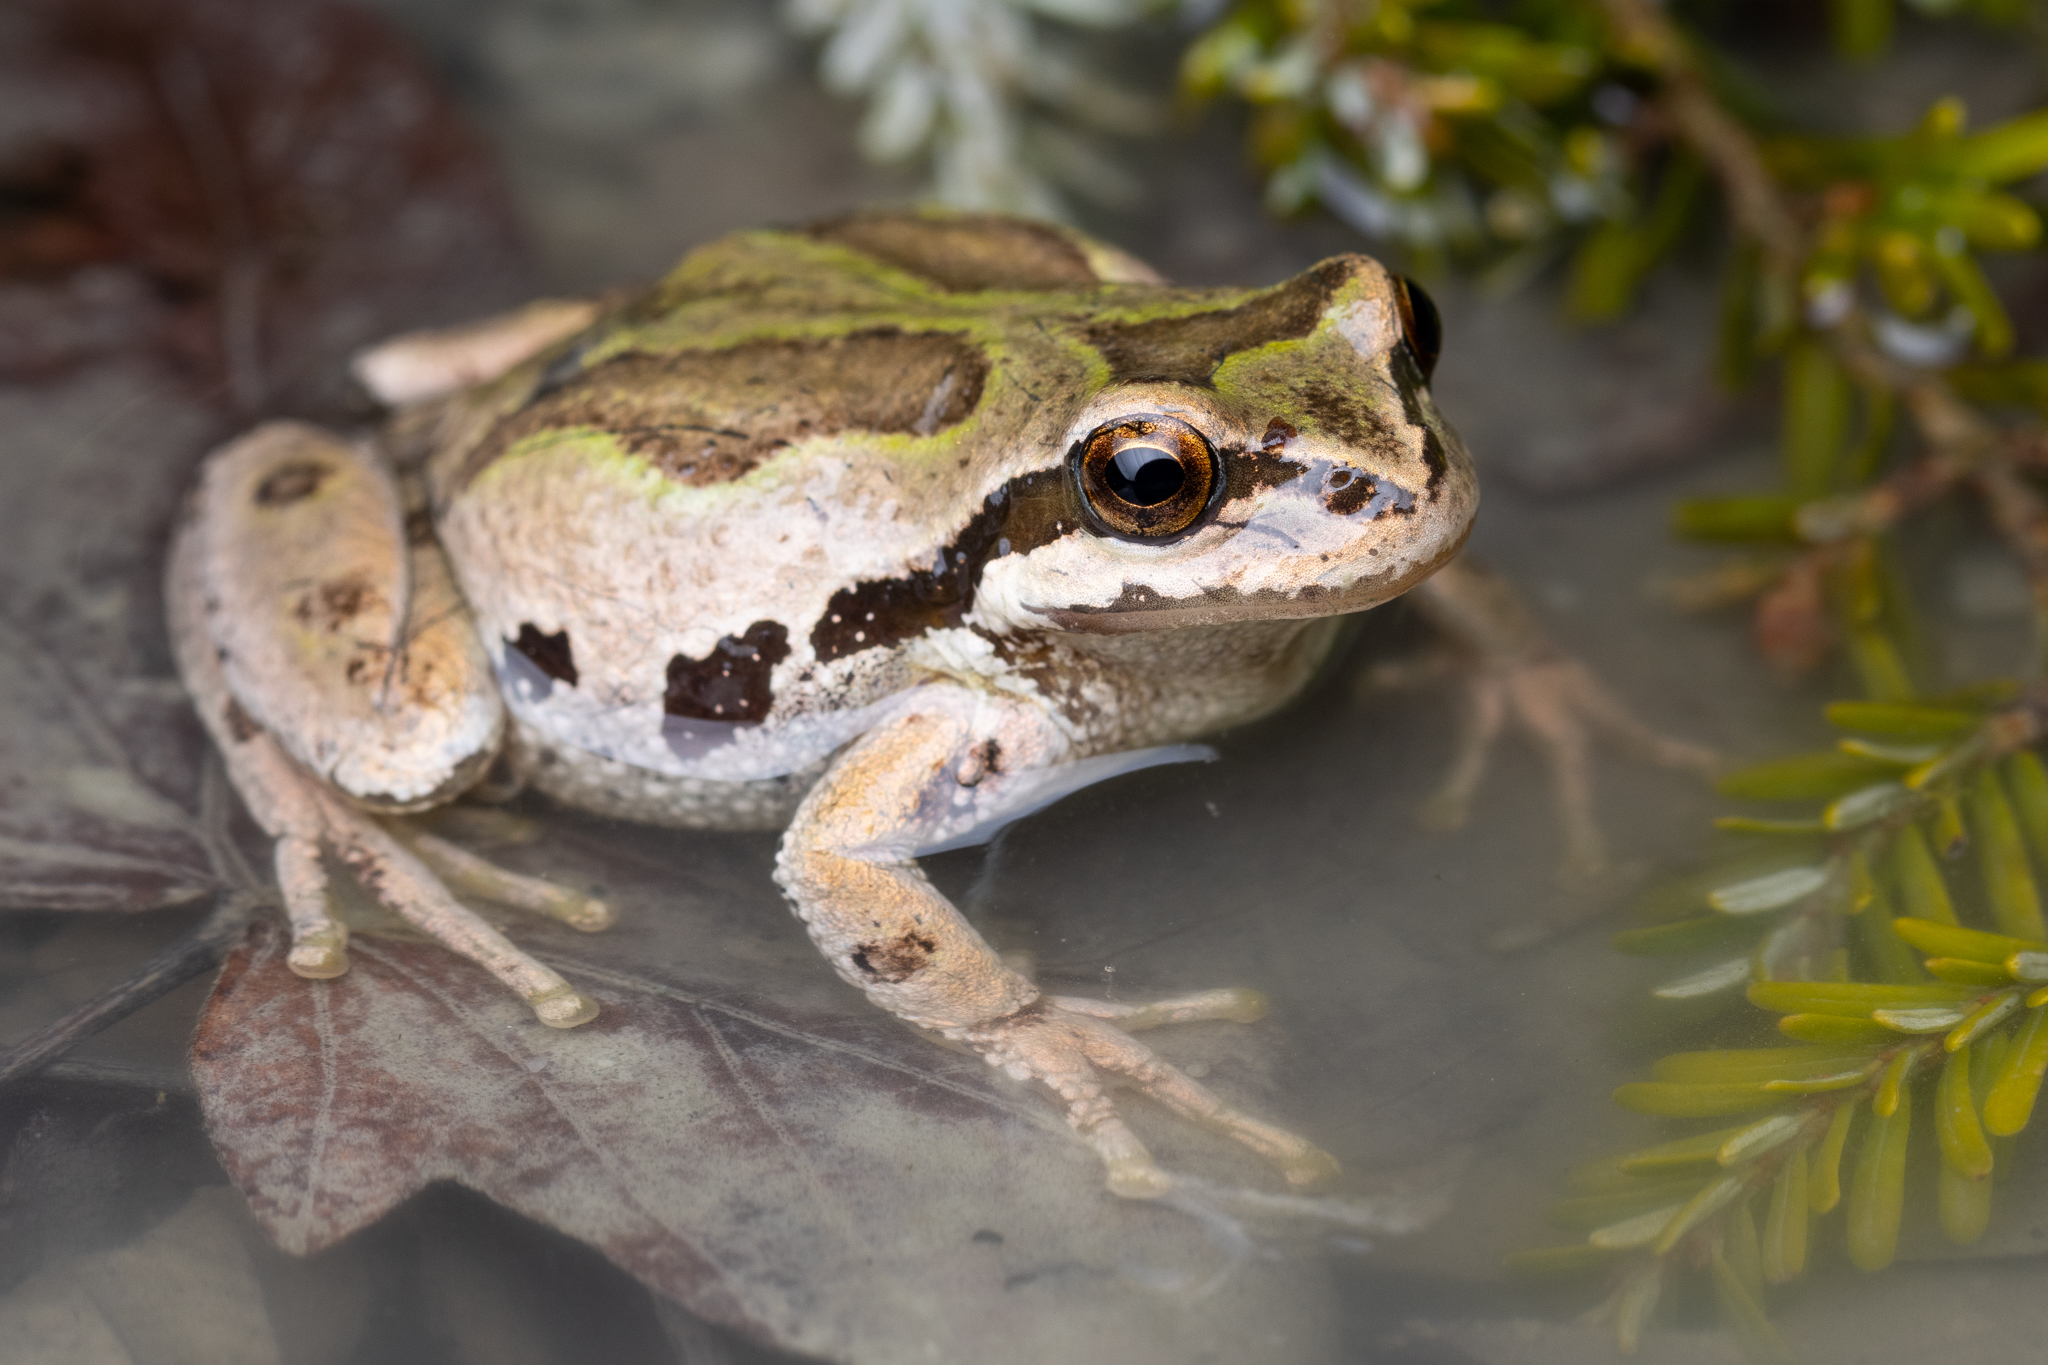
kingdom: Animalia
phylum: Chordata
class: Amphibia
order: Anura
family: Hylidae
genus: Pseudacris
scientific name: Pseudacris regilla
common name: Pacific chorus frog
